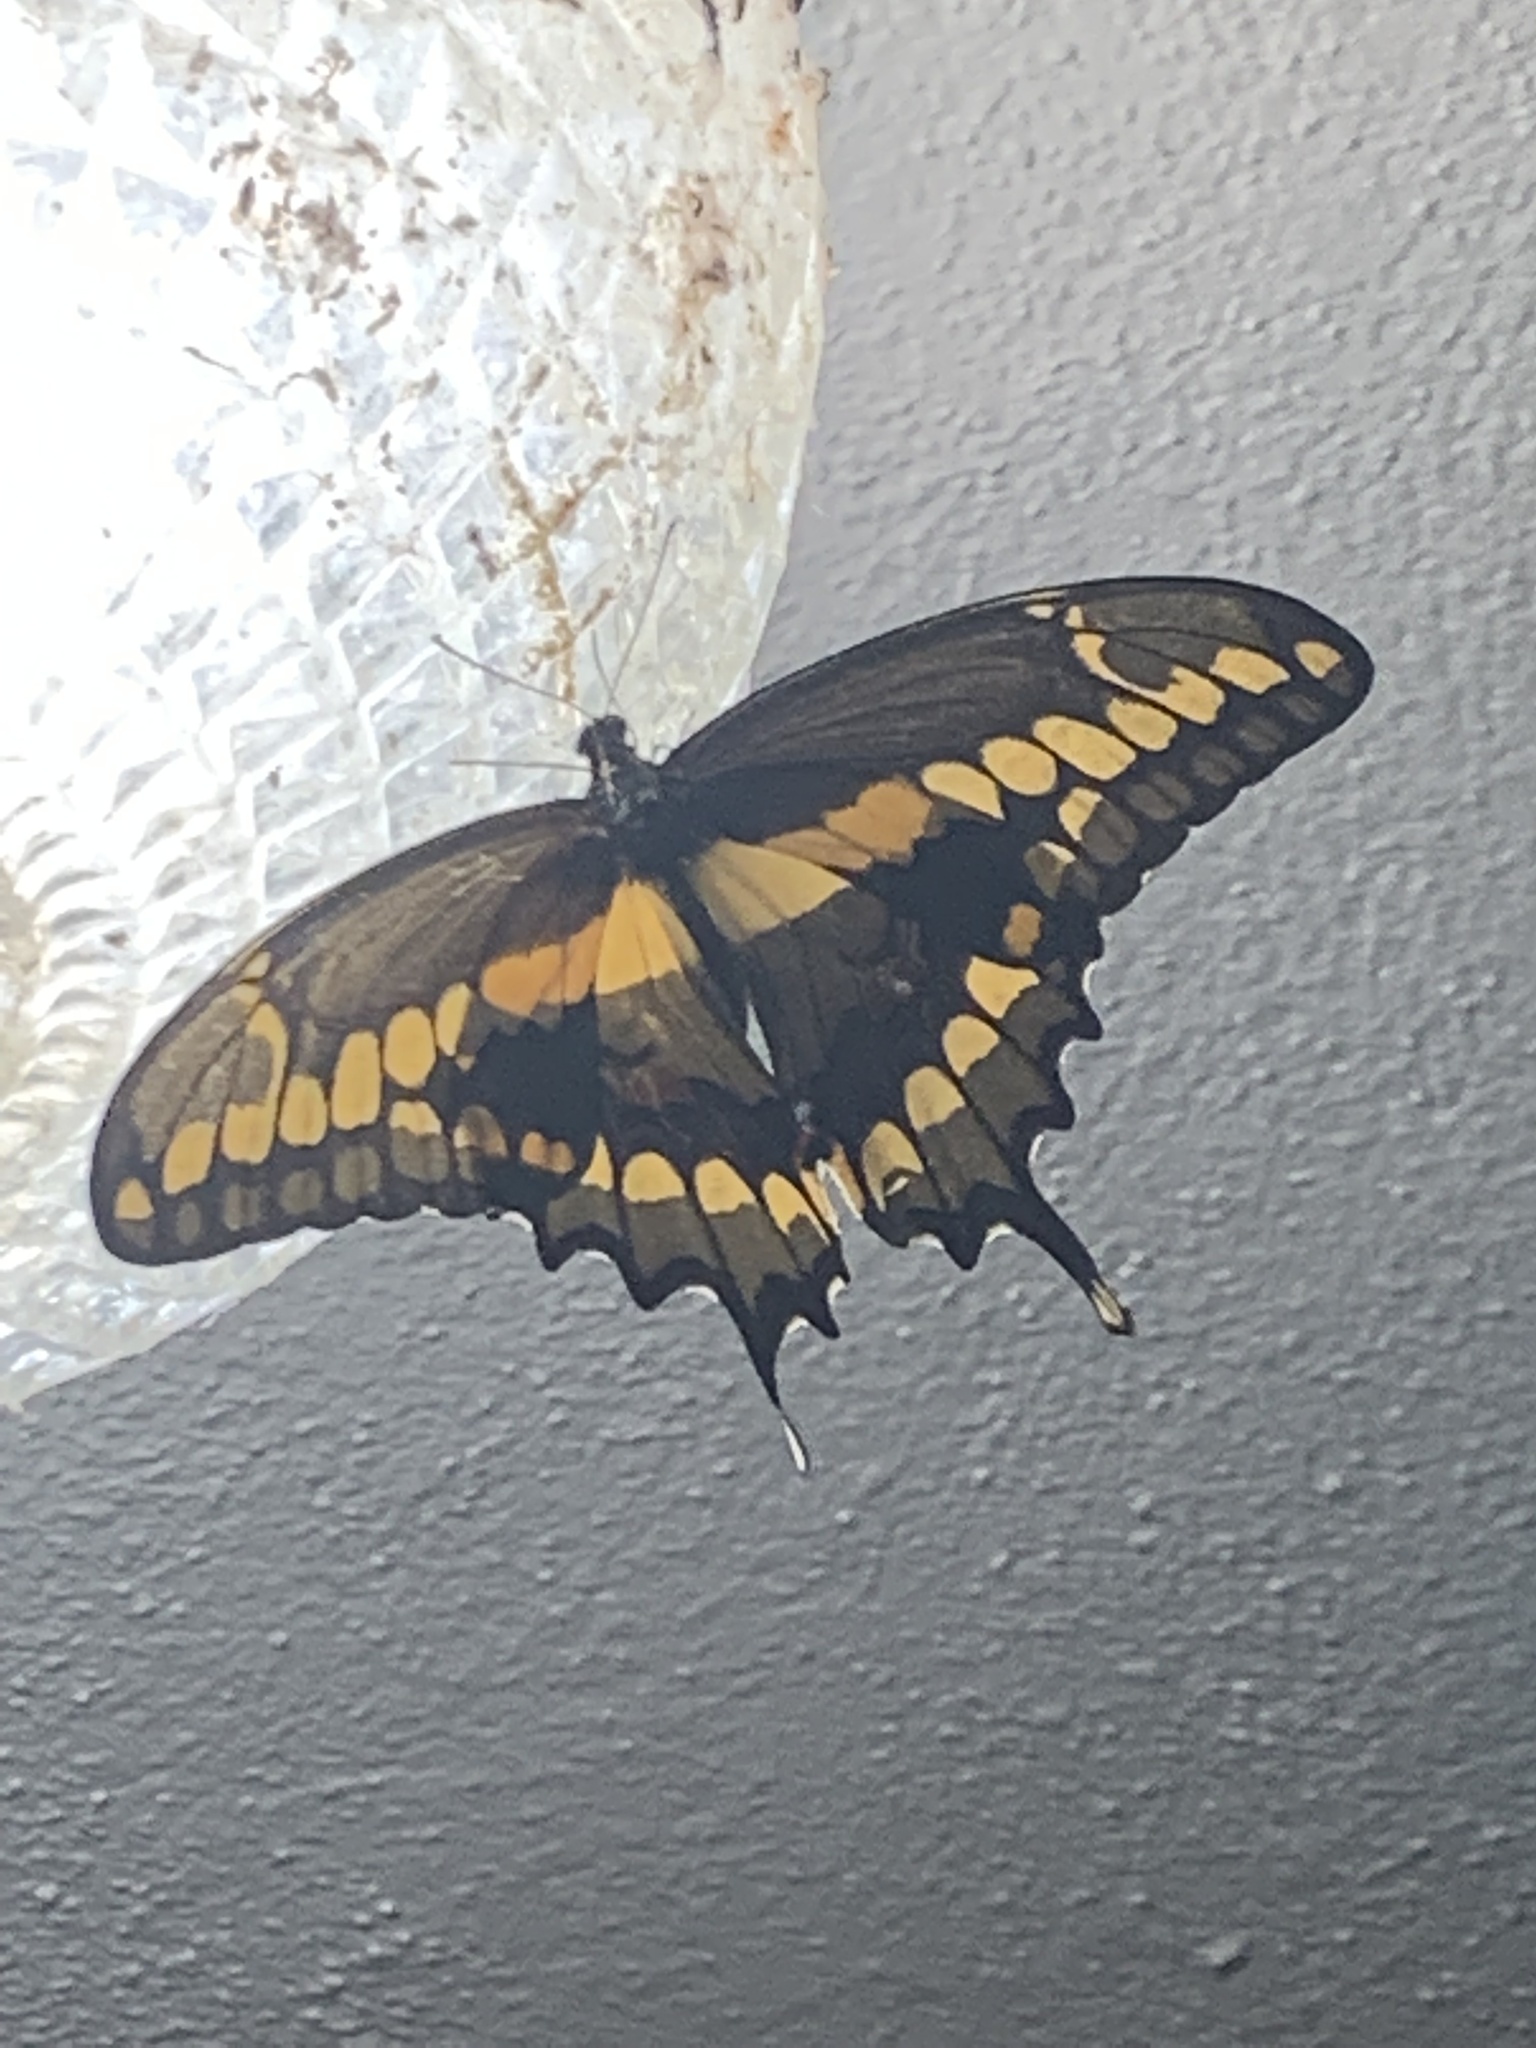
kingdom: Animalia
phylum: Arthropoda
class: Insecta
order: Lepidoptera
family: Papilionidae
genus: Papilio
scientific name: Papilio rumiko
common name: Western giant swallowtail
